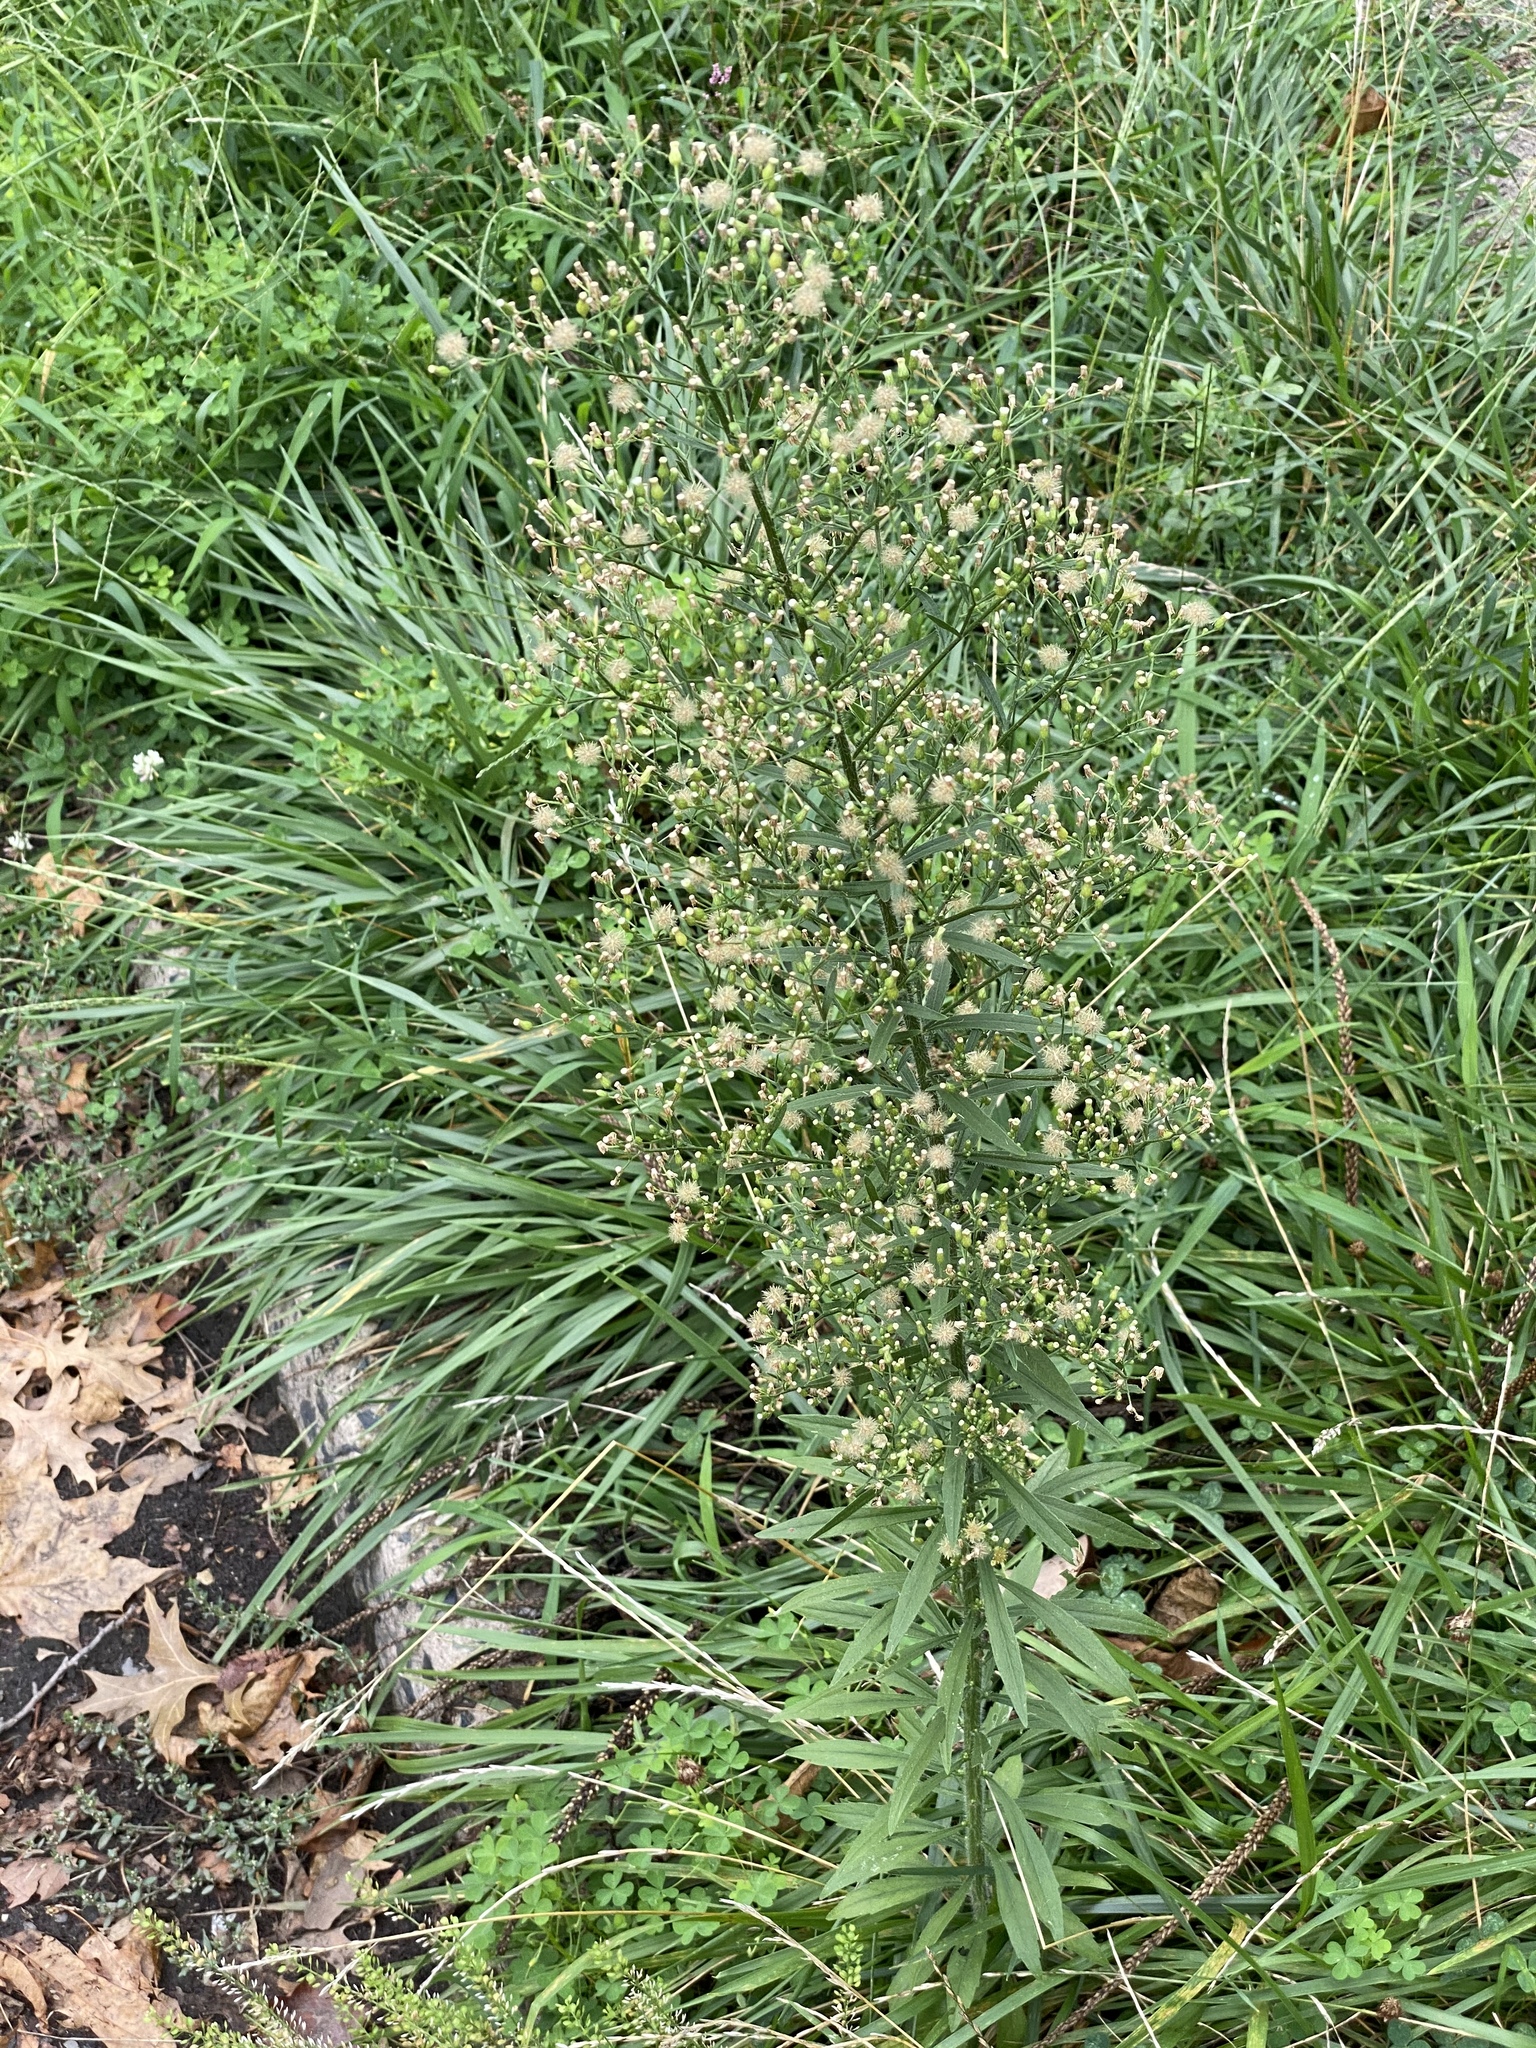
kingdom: Plantae
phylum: Tracheophyta
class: Magnoliopsida
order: Asterales
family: Asteraceae
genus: Erigeron
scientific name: Erigeron canadensis
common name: Canadian fleabane
